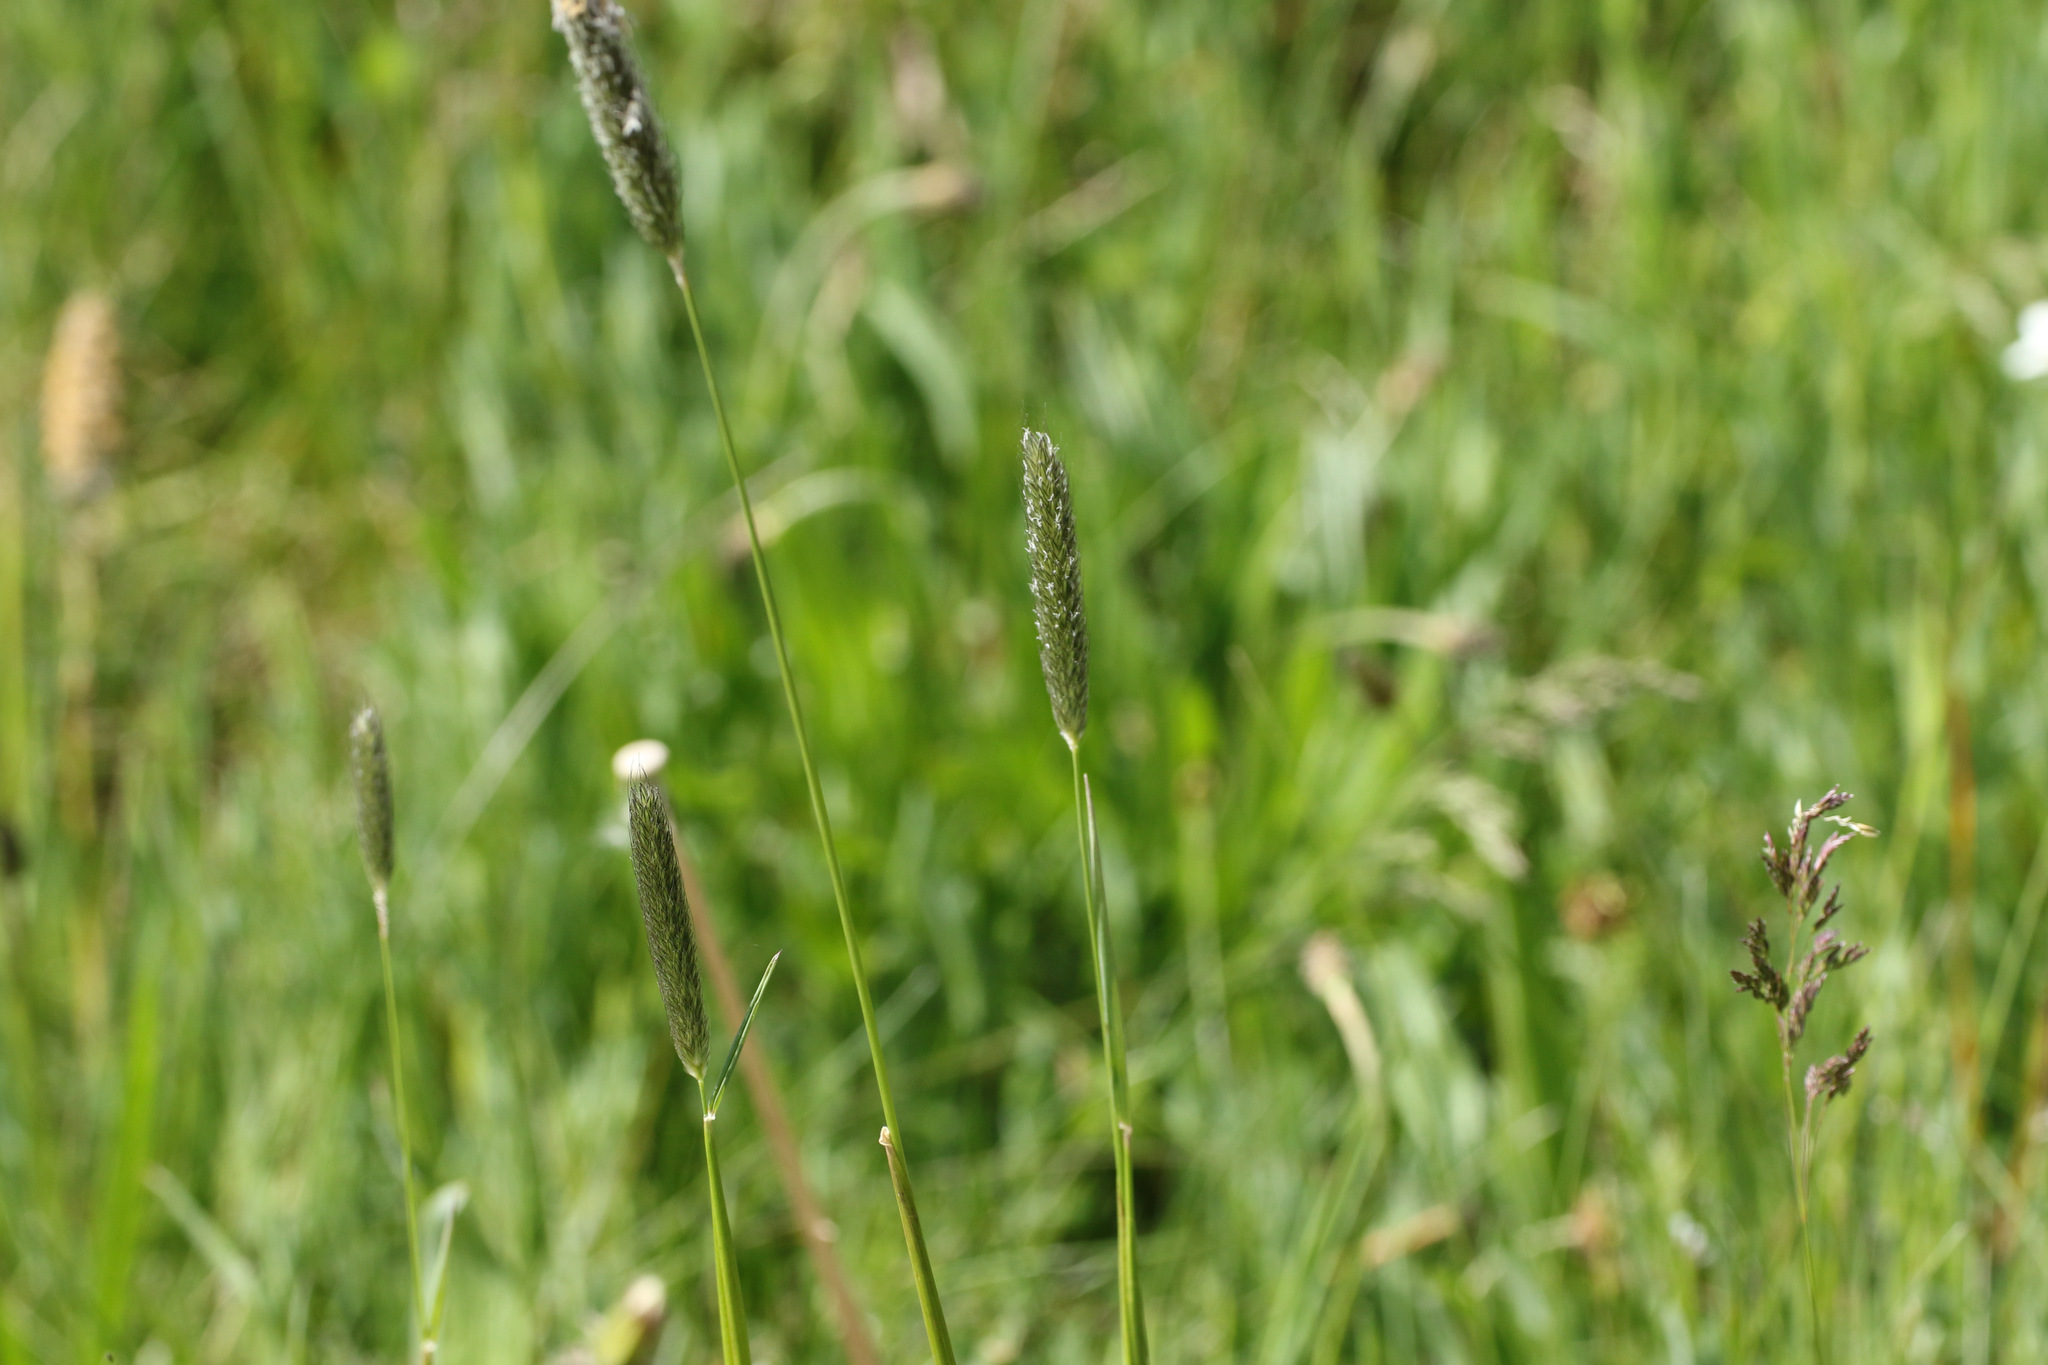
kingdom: Plantae
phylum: Tracheophyta
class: Liliopsida
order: Poales
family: Poaceae
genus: Alopecurus
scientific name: Alopecurus pratensis
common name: Meadow foxtail
